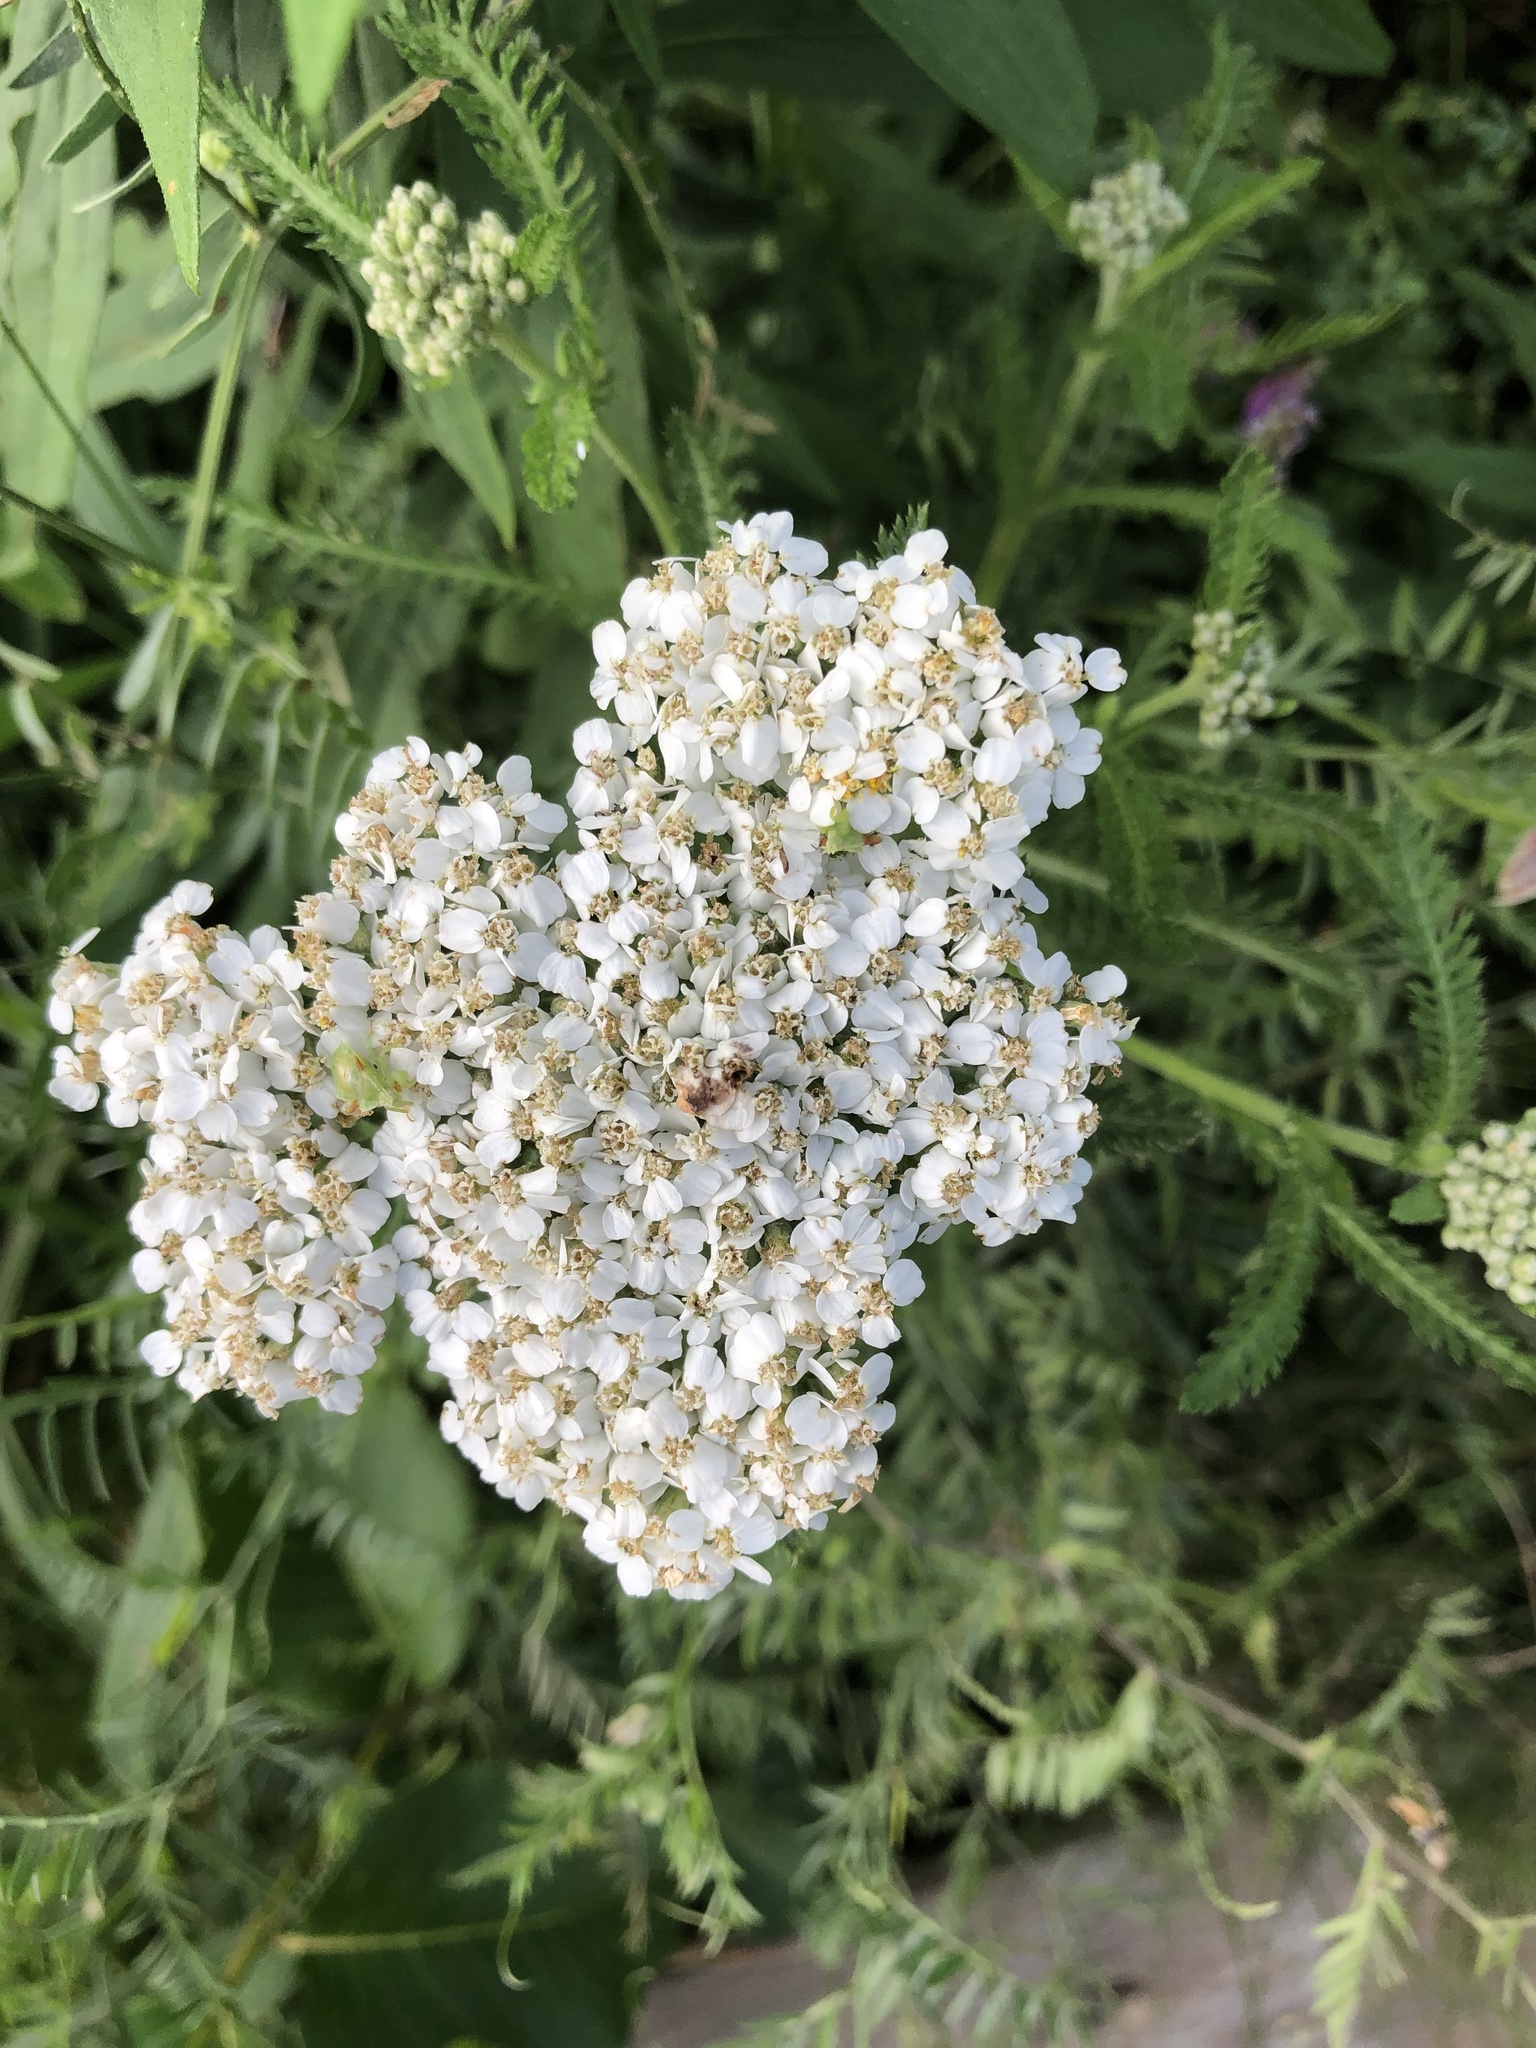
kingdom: Plantae
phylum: Tracheophyta
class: Magnoliopsida
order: Asterales
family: Asteraceae
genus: Achillea
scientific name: Achillea millefolium
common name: Yarrow
